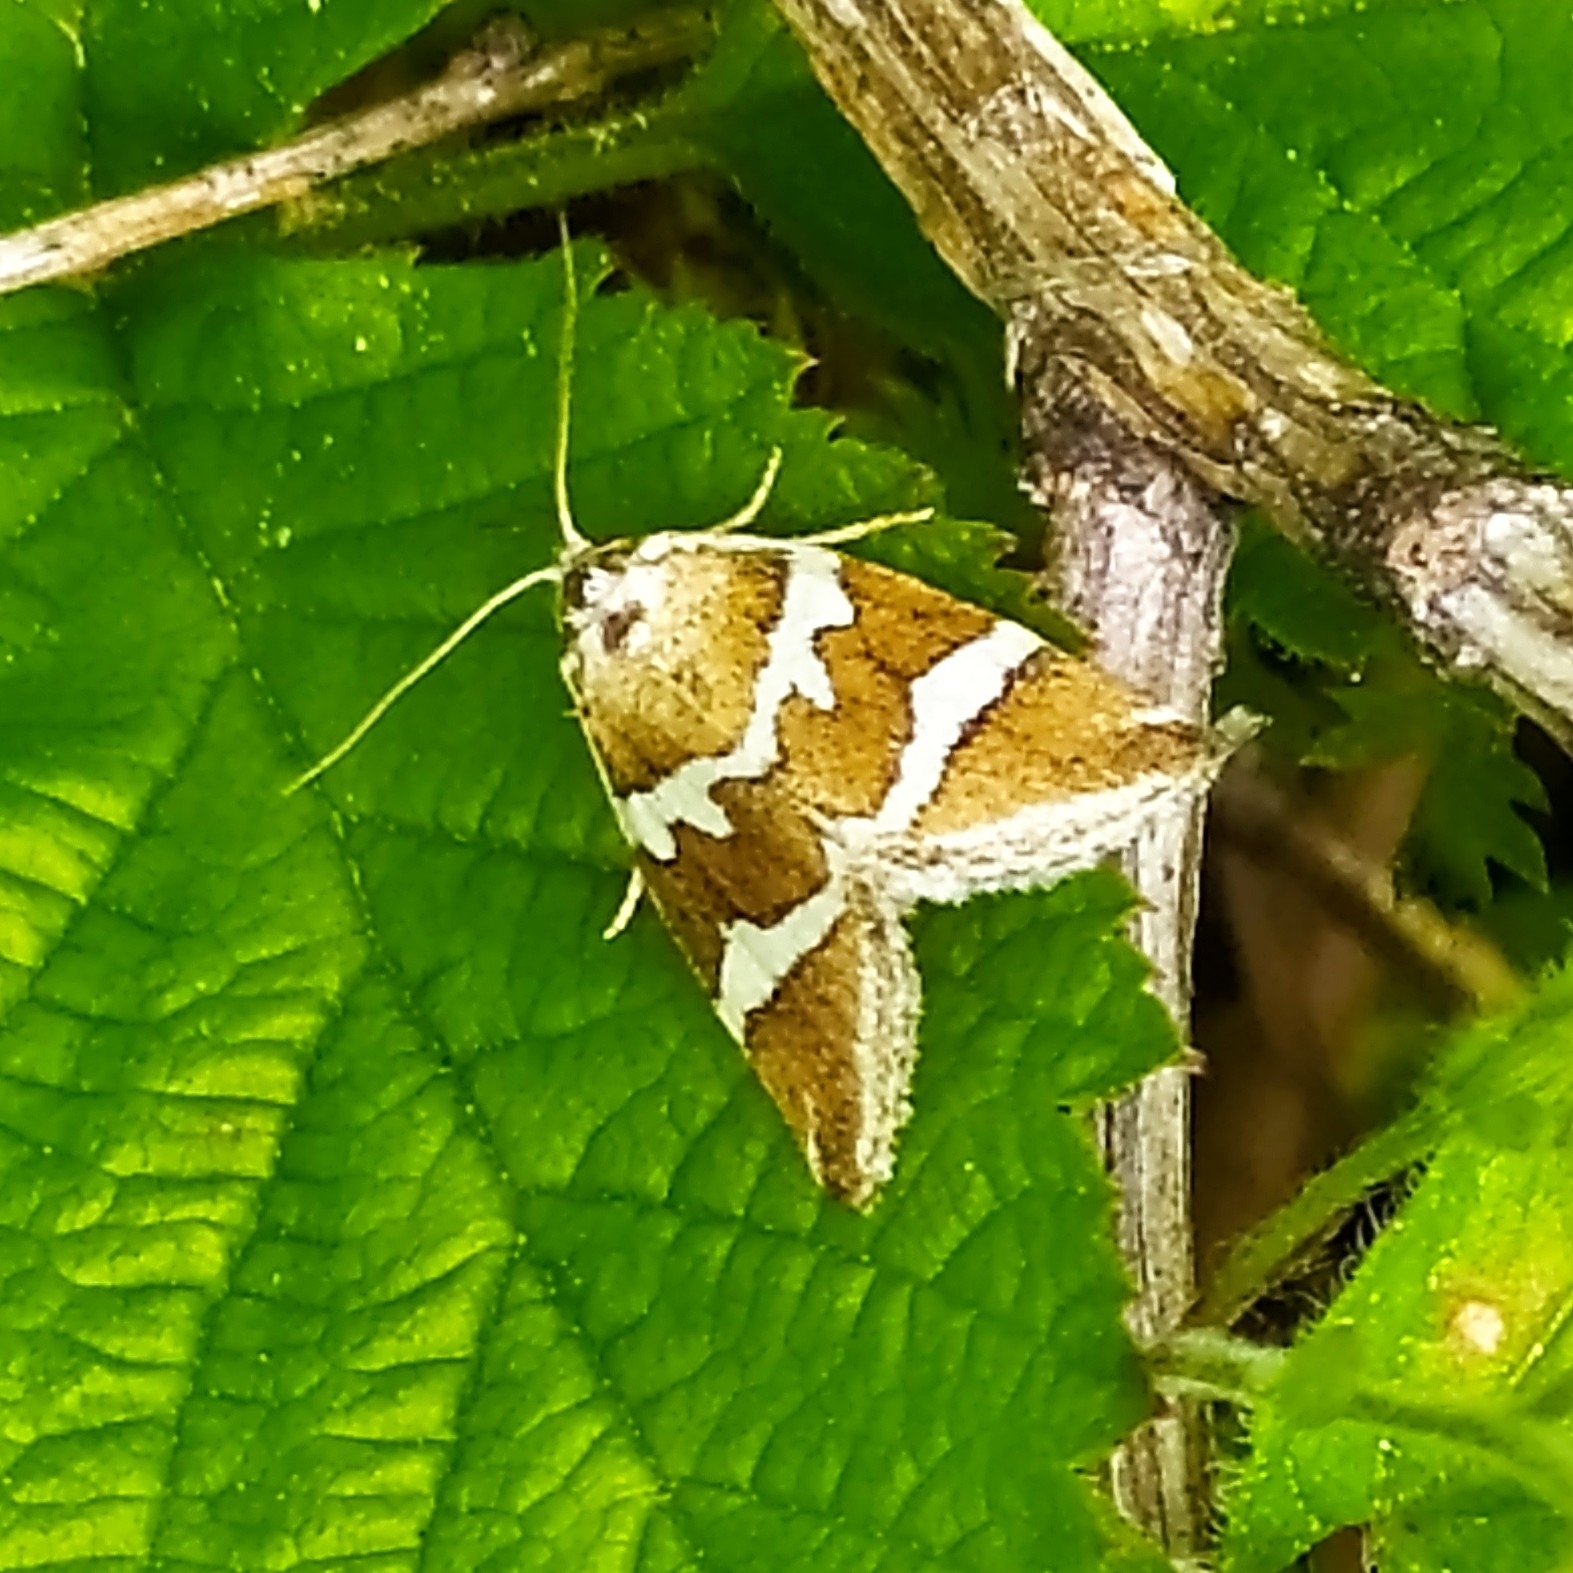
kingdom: Animalia
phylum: Arthropoda
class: Insecta
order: Lepidoptera
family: Noctuidae
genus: Deltote
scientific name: Deltote bankiana
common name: Silver barred
